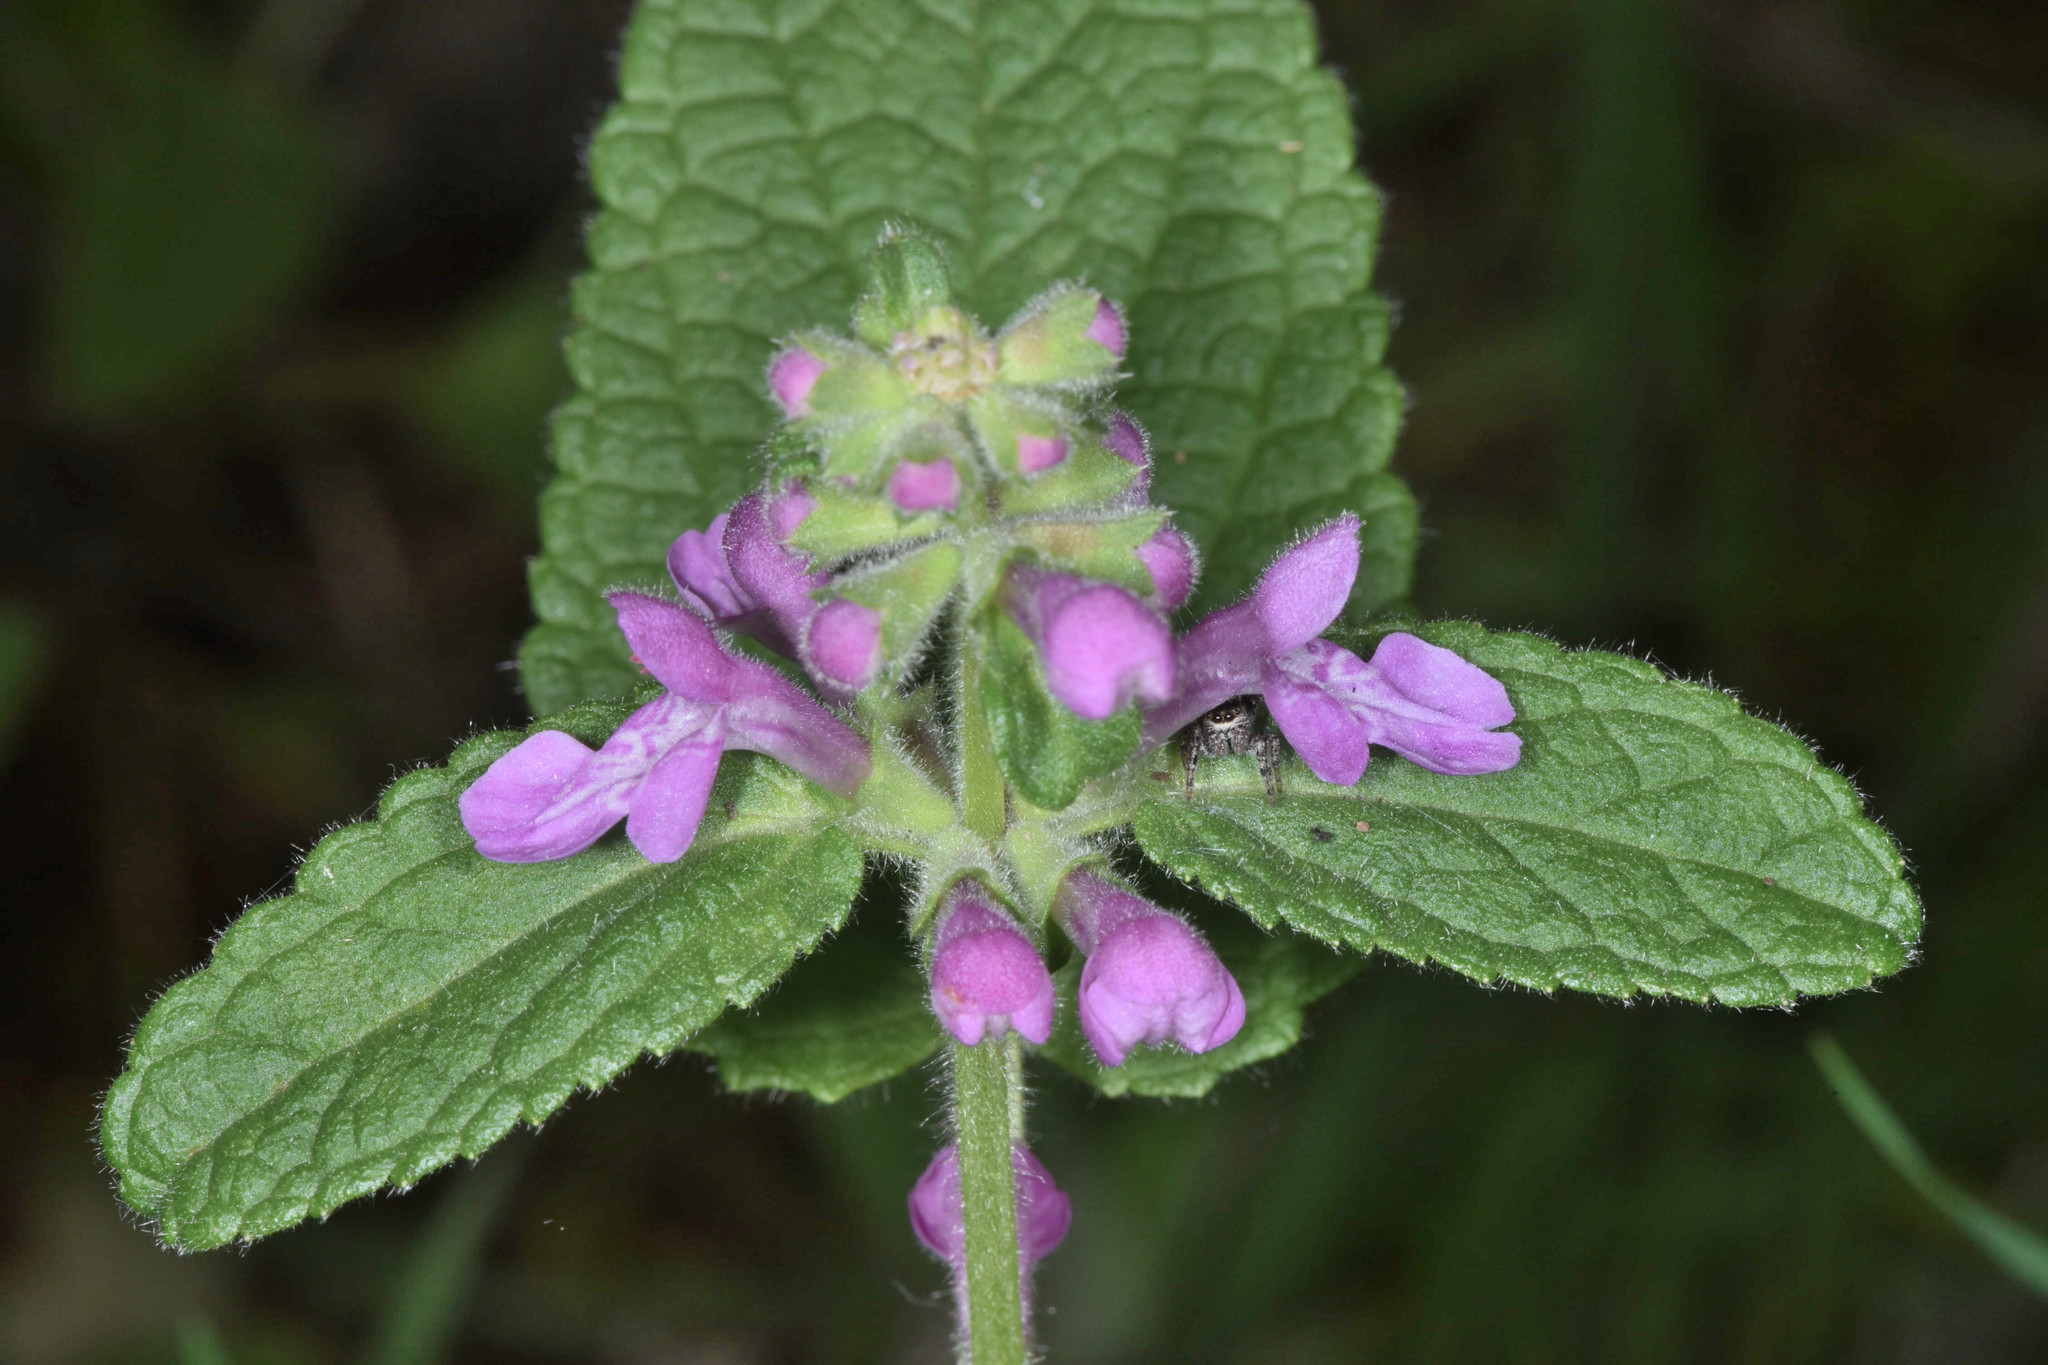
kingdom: Plantae
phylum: Tracheophyta
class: Magnoliopsida
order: Lamiales
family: Lamiaceae
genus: Stachys
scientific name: Stachys bullata
